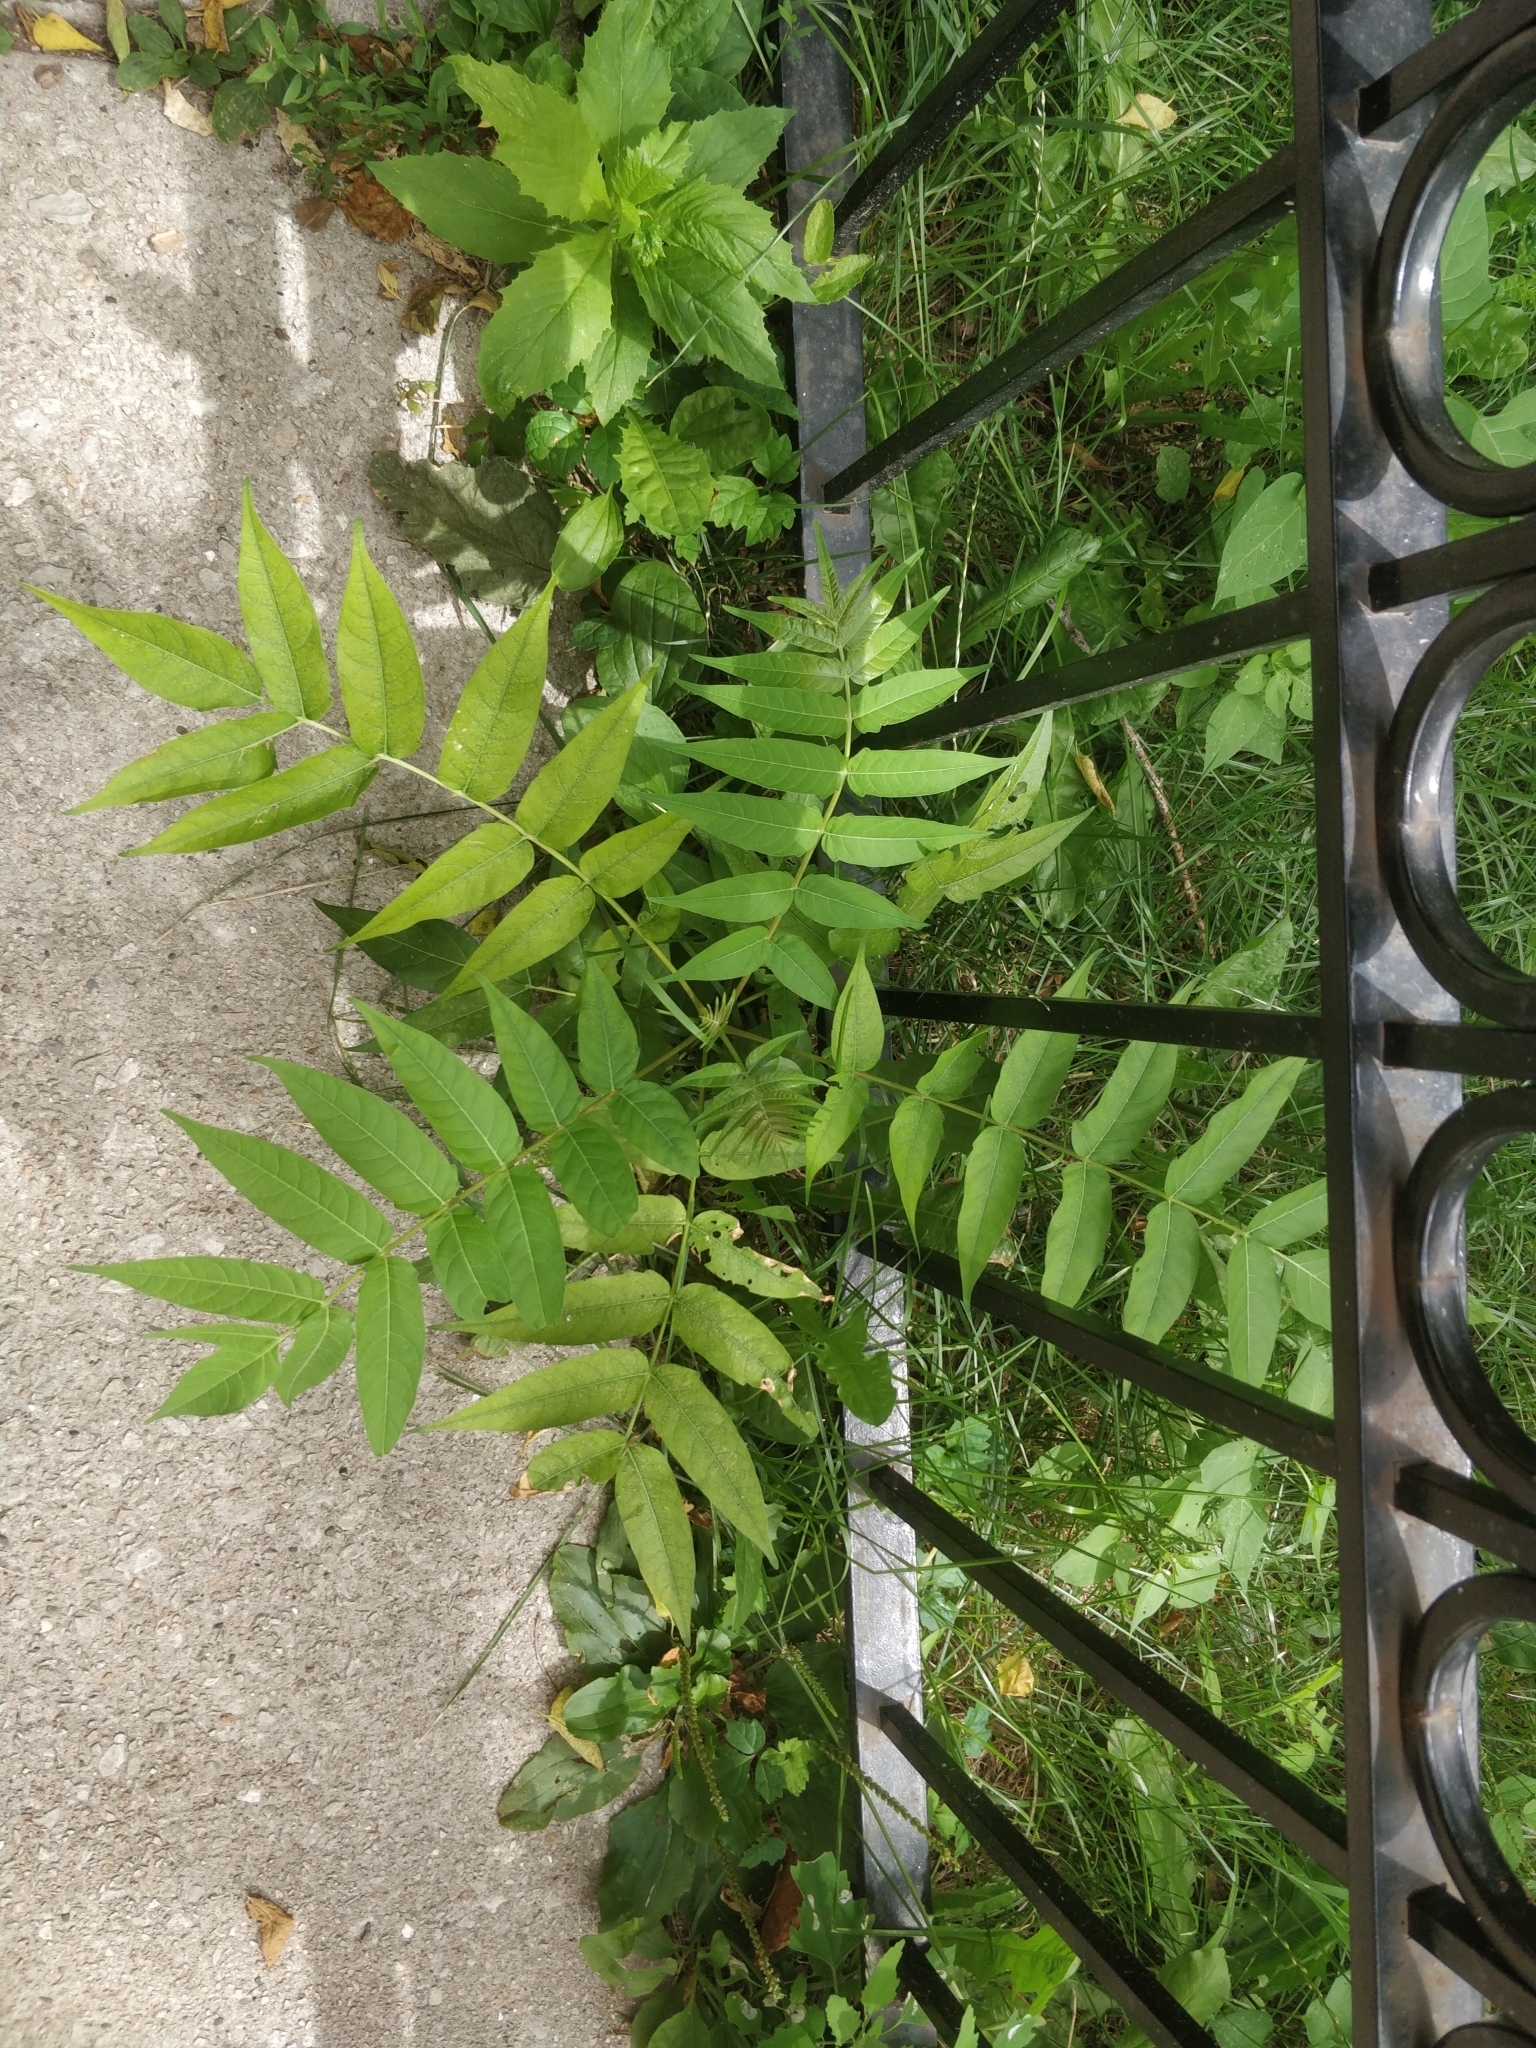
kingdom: Plantae
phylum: Tracheophyta
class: Magnoliopsida
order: Sapindales
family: Simaroubaceae
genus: Ailanthus
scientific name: Ailanthus altissima
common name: Tree-of-heaven
